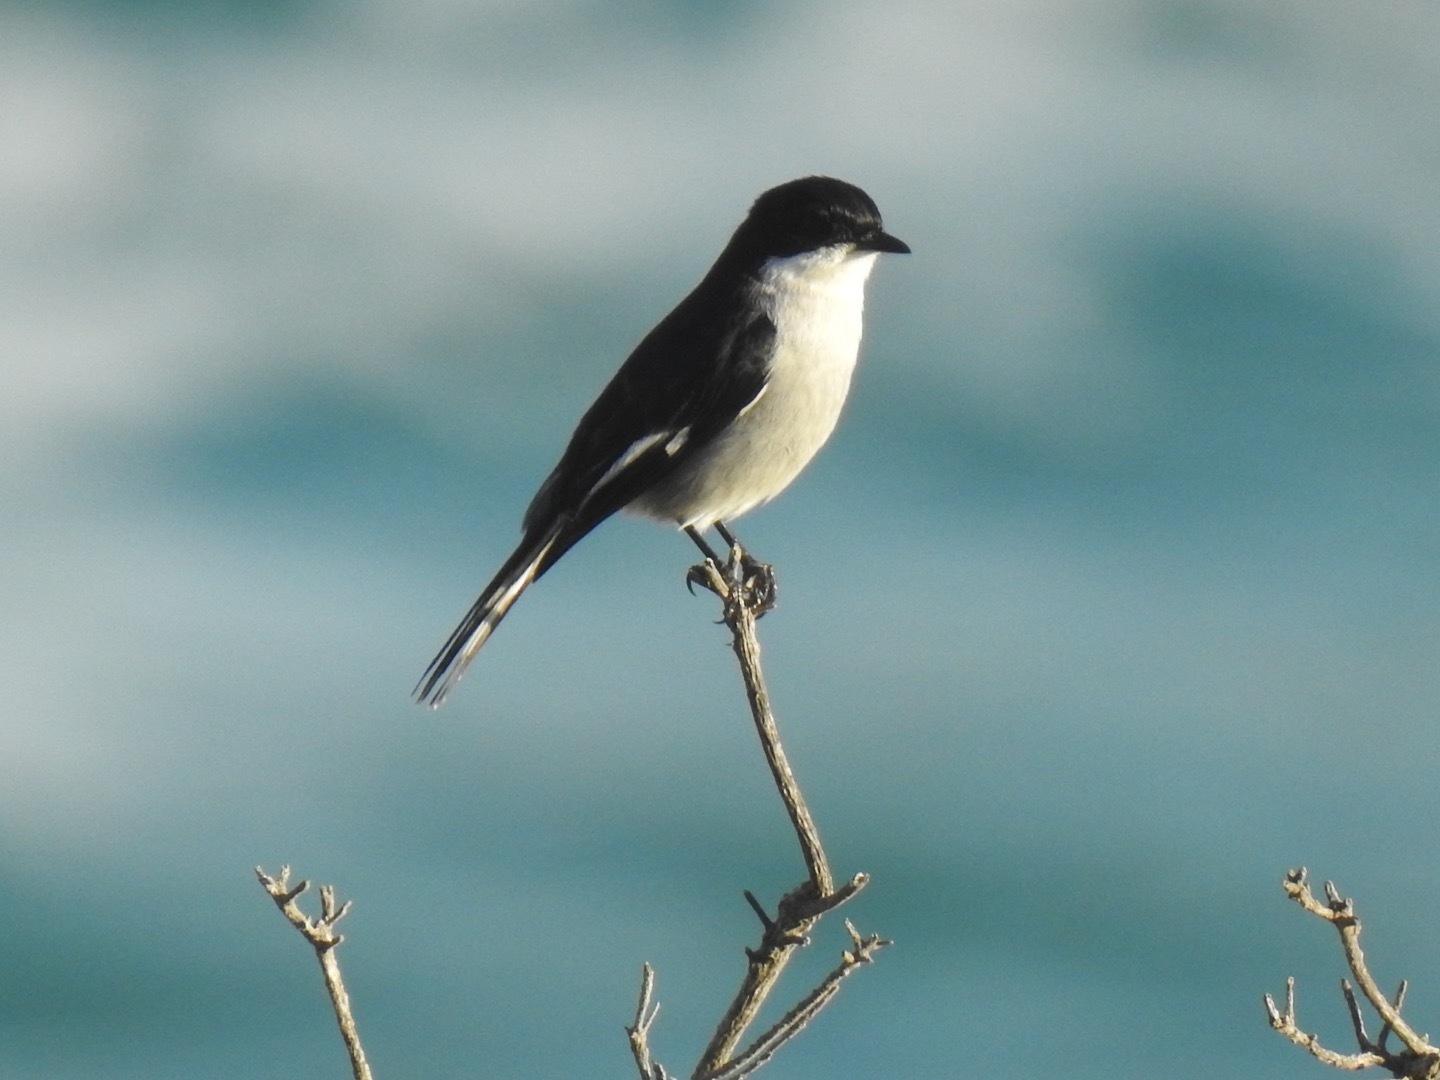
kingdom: Animalia
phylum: Chordata
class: Aves
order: Passeriformes
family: Muscicapidae
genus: Sigelus
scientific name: Sigelus silens
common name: Fiscal flycatcher
